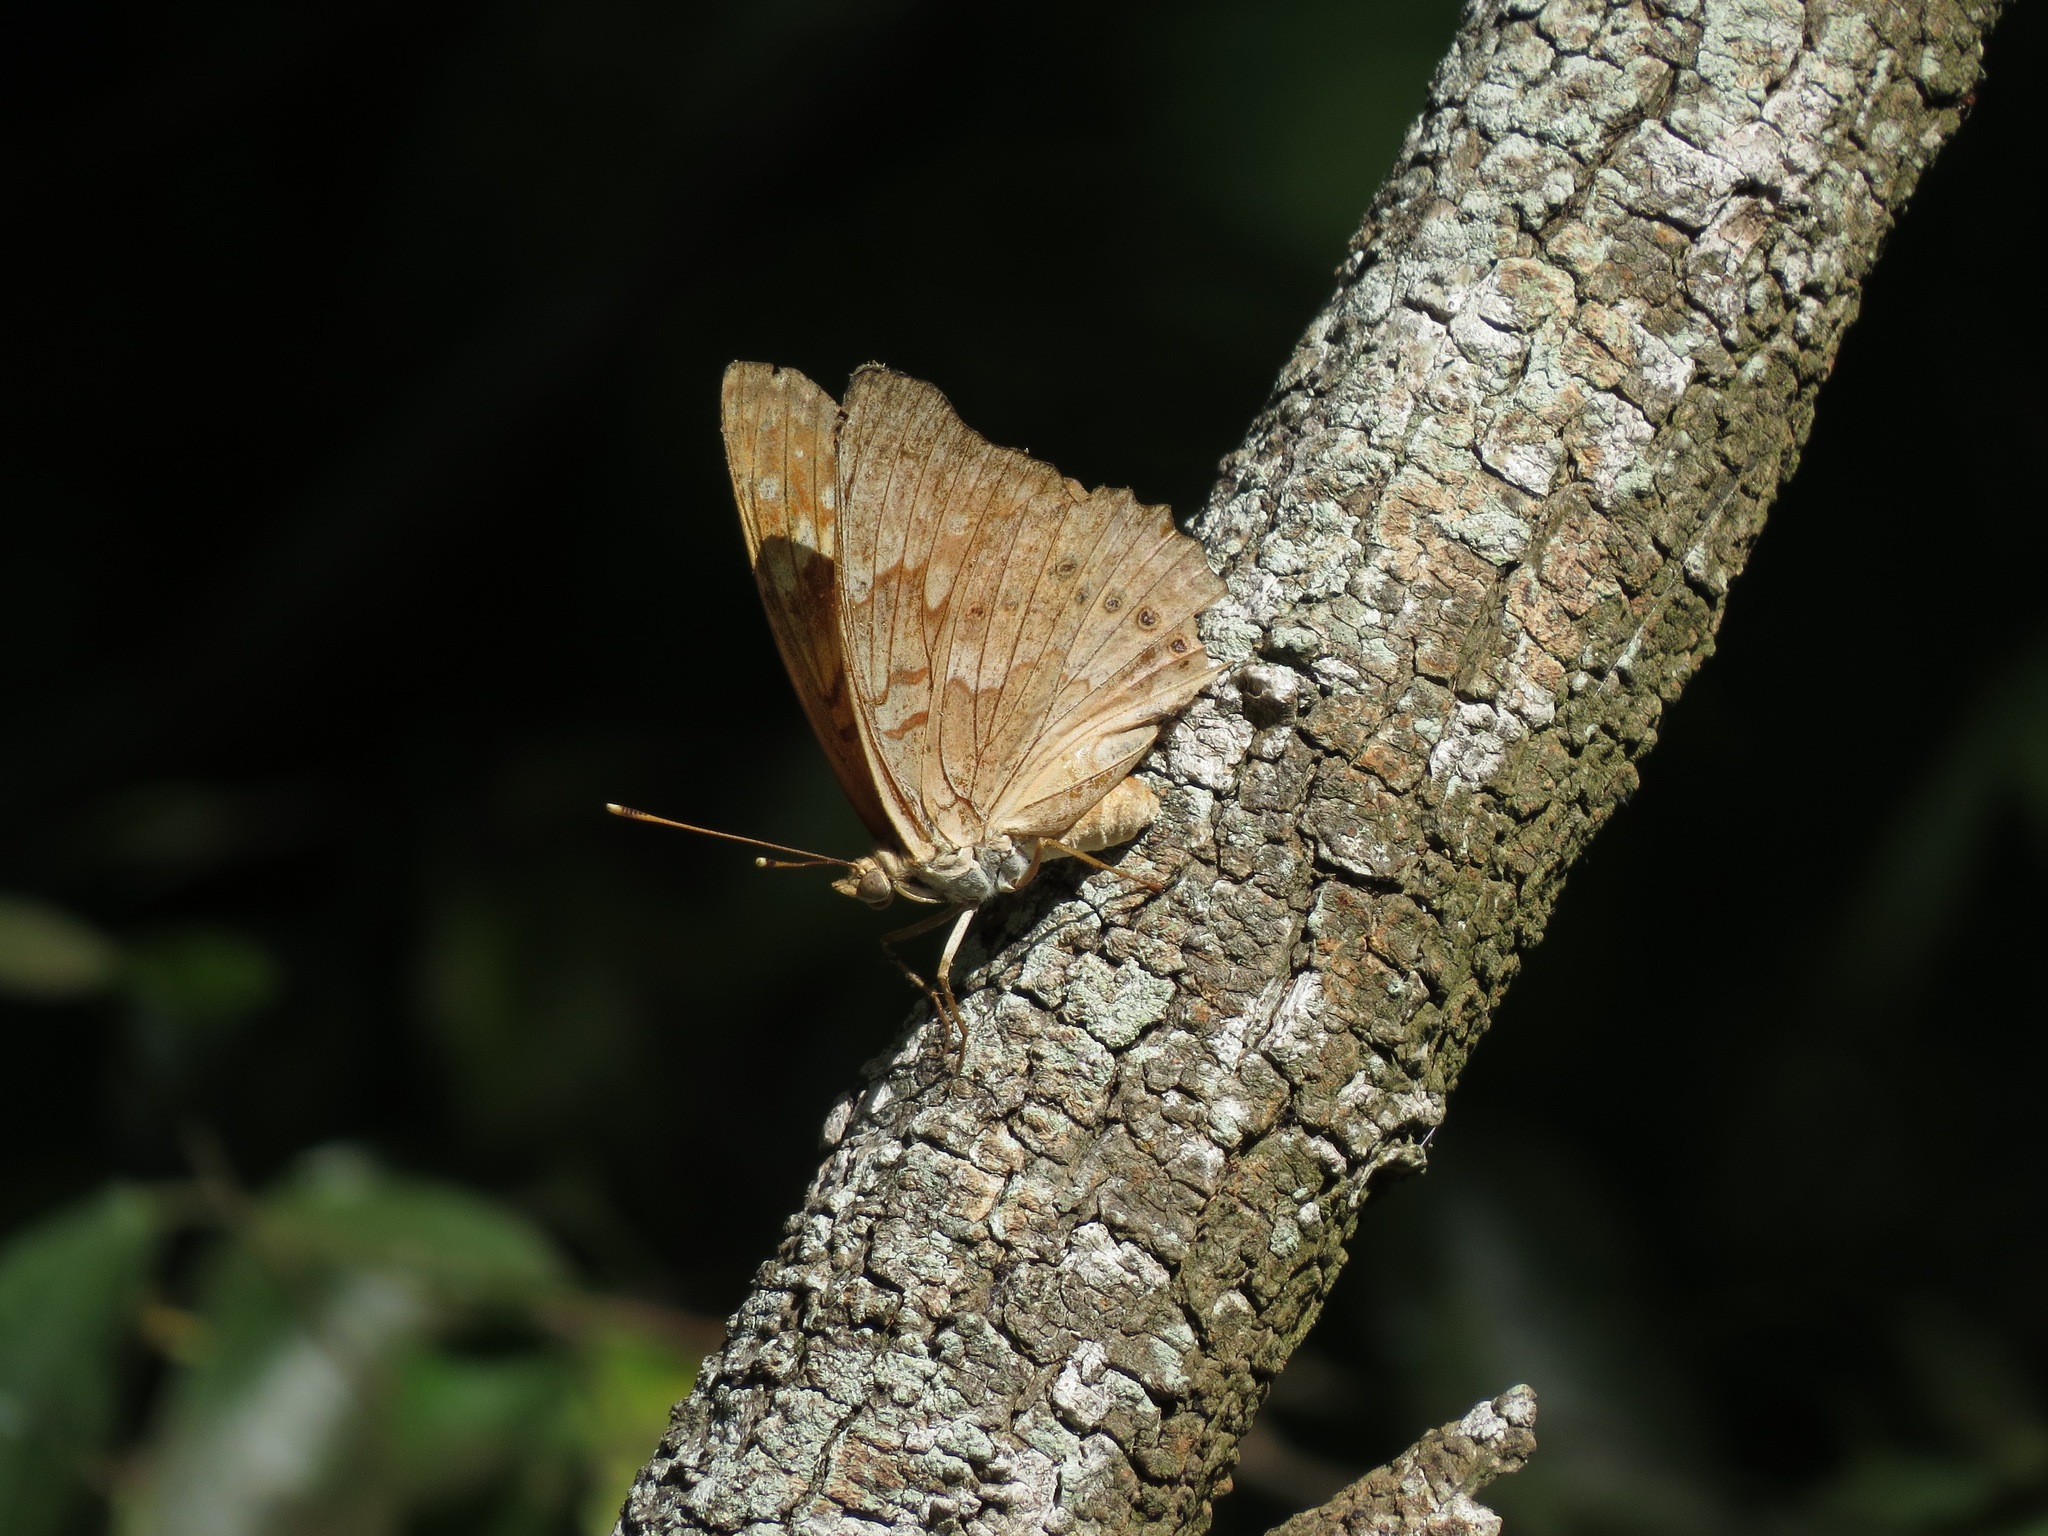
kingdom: Animalia
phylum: Arthropoda
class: Insecta
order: Lepidoptera
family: Nymphalidae
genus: Asterocampa
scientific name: Asterocampa clyton
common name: Tawny emperor
